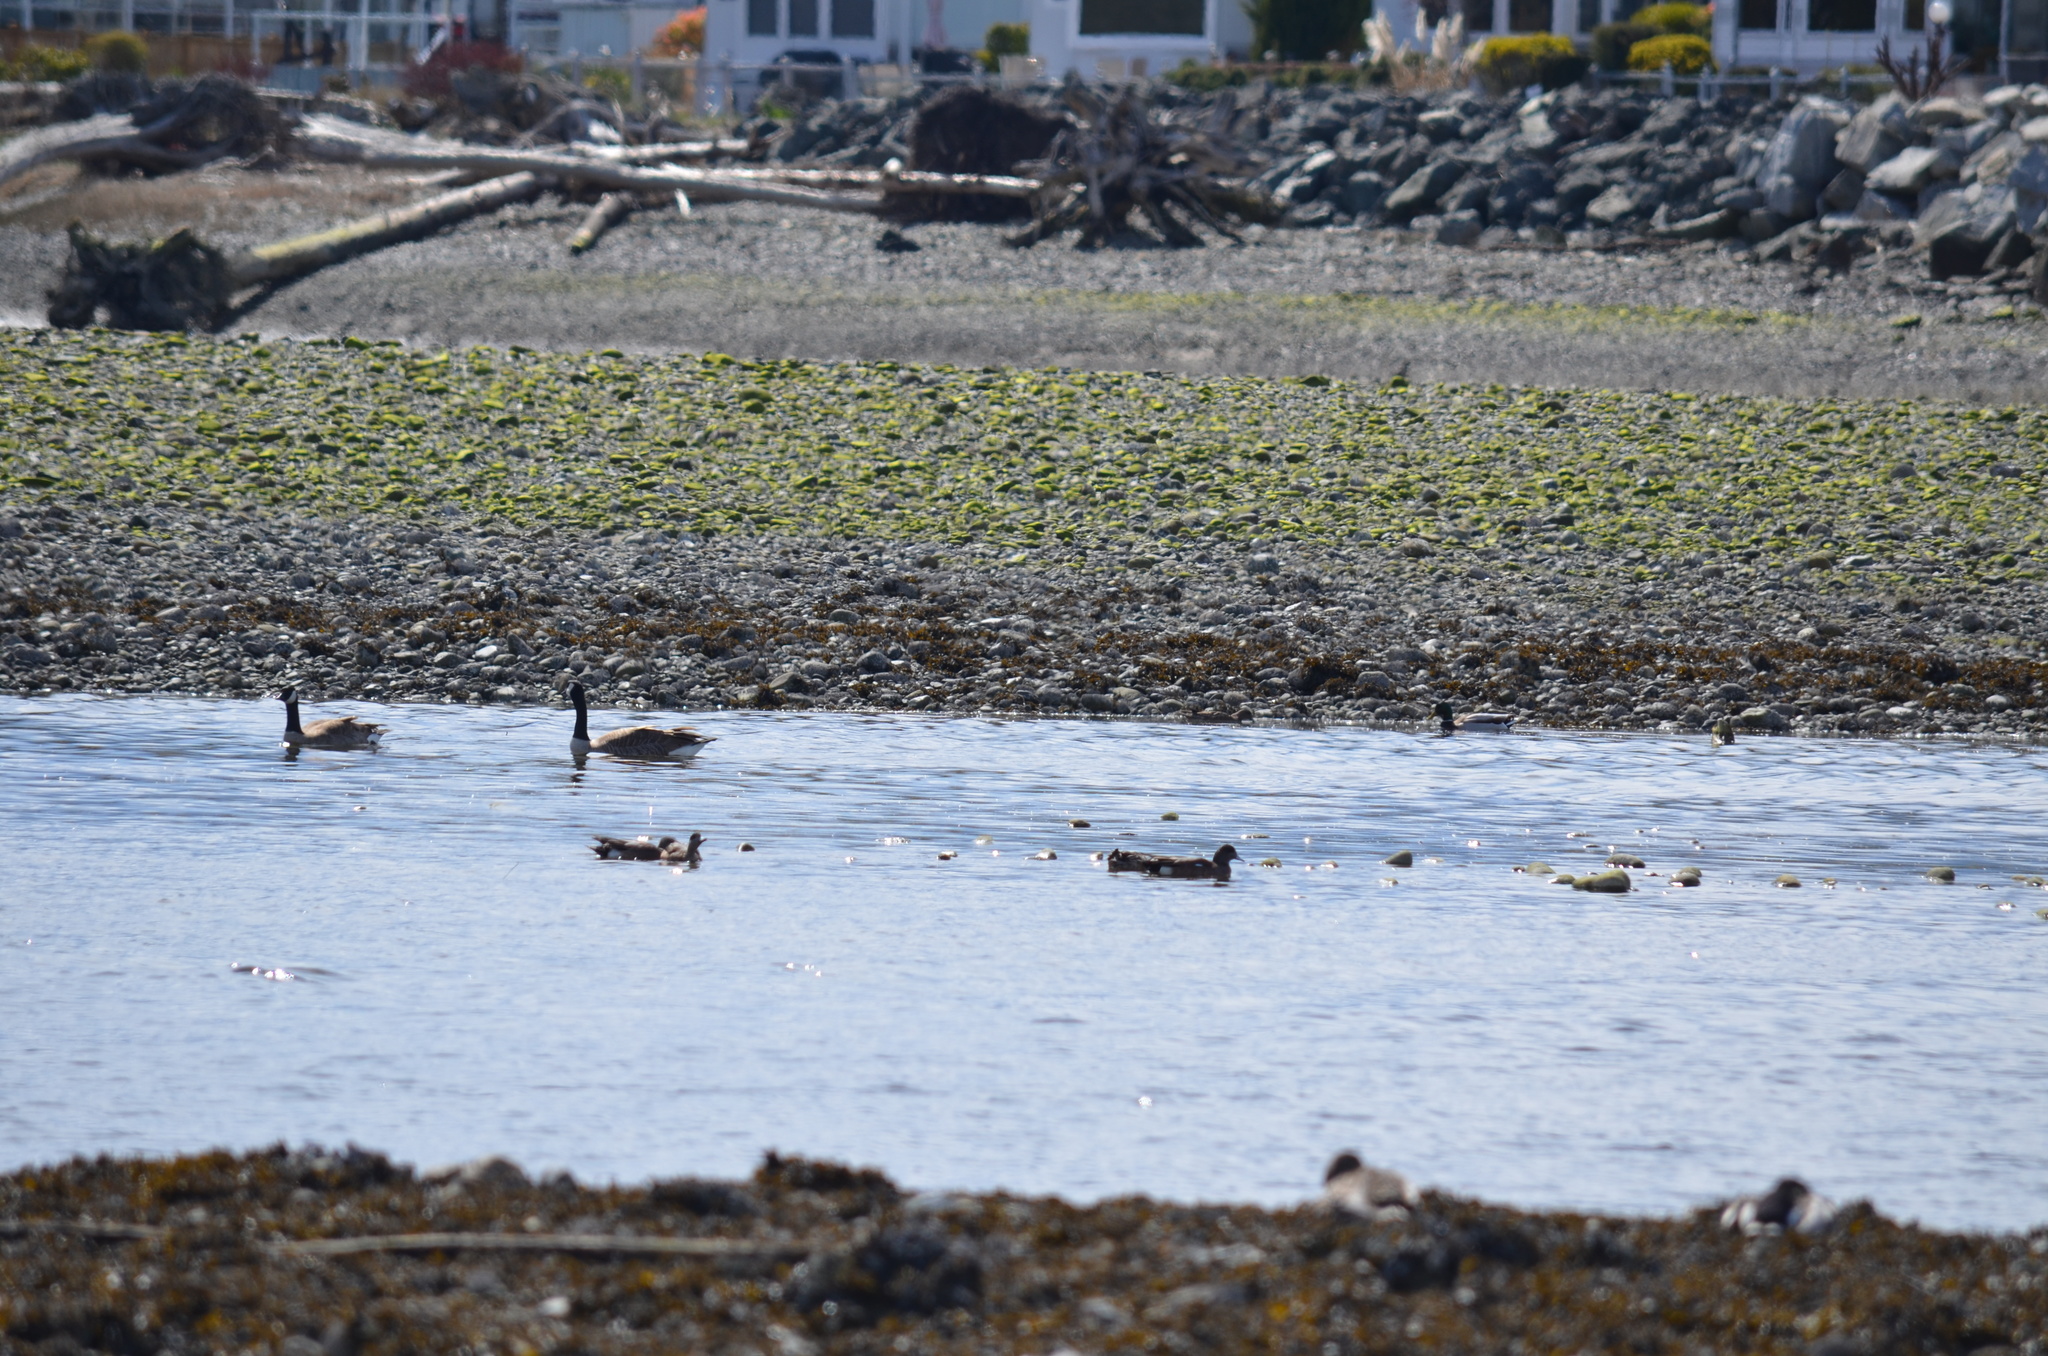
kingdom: Animalia
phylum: Chordata
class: Aves
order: Anseriformes
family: Anatidae
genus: Mareca
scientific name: Mareca americana
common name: American wigeon
